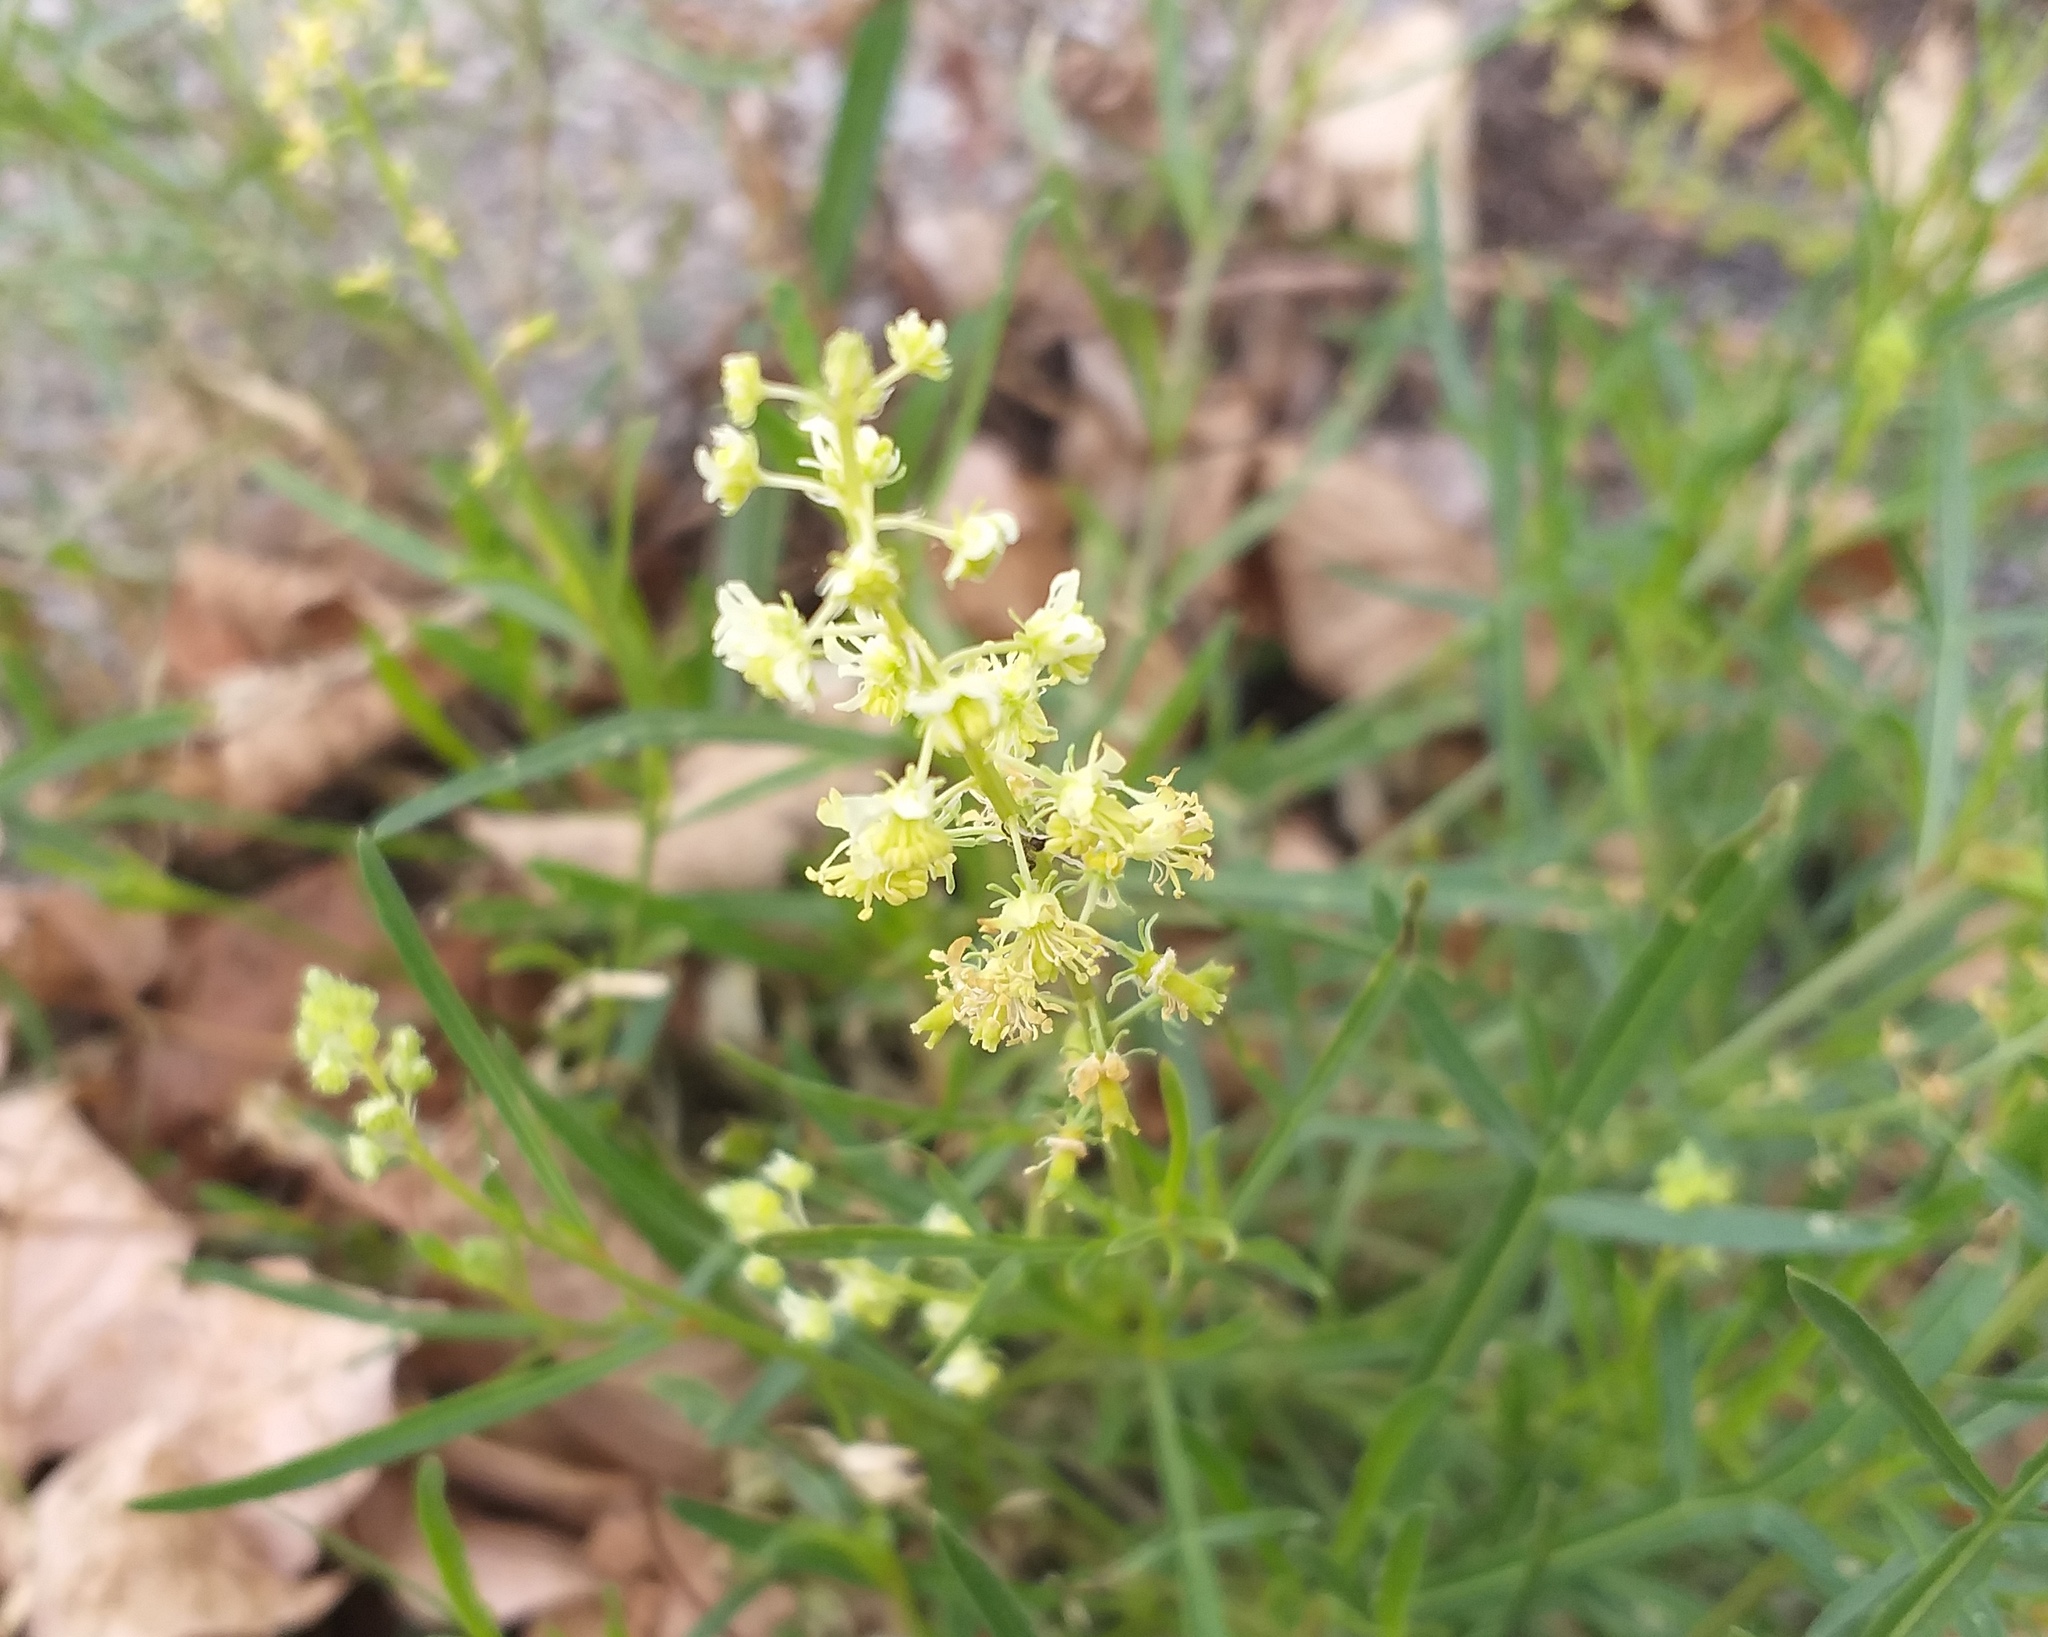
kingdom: Plantae
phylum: Tracheophyta
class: Magnoliopsida
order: Brassicales
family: Resedaceae
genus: Reseda
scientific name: Reseda lutea
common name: Wild mignonette
